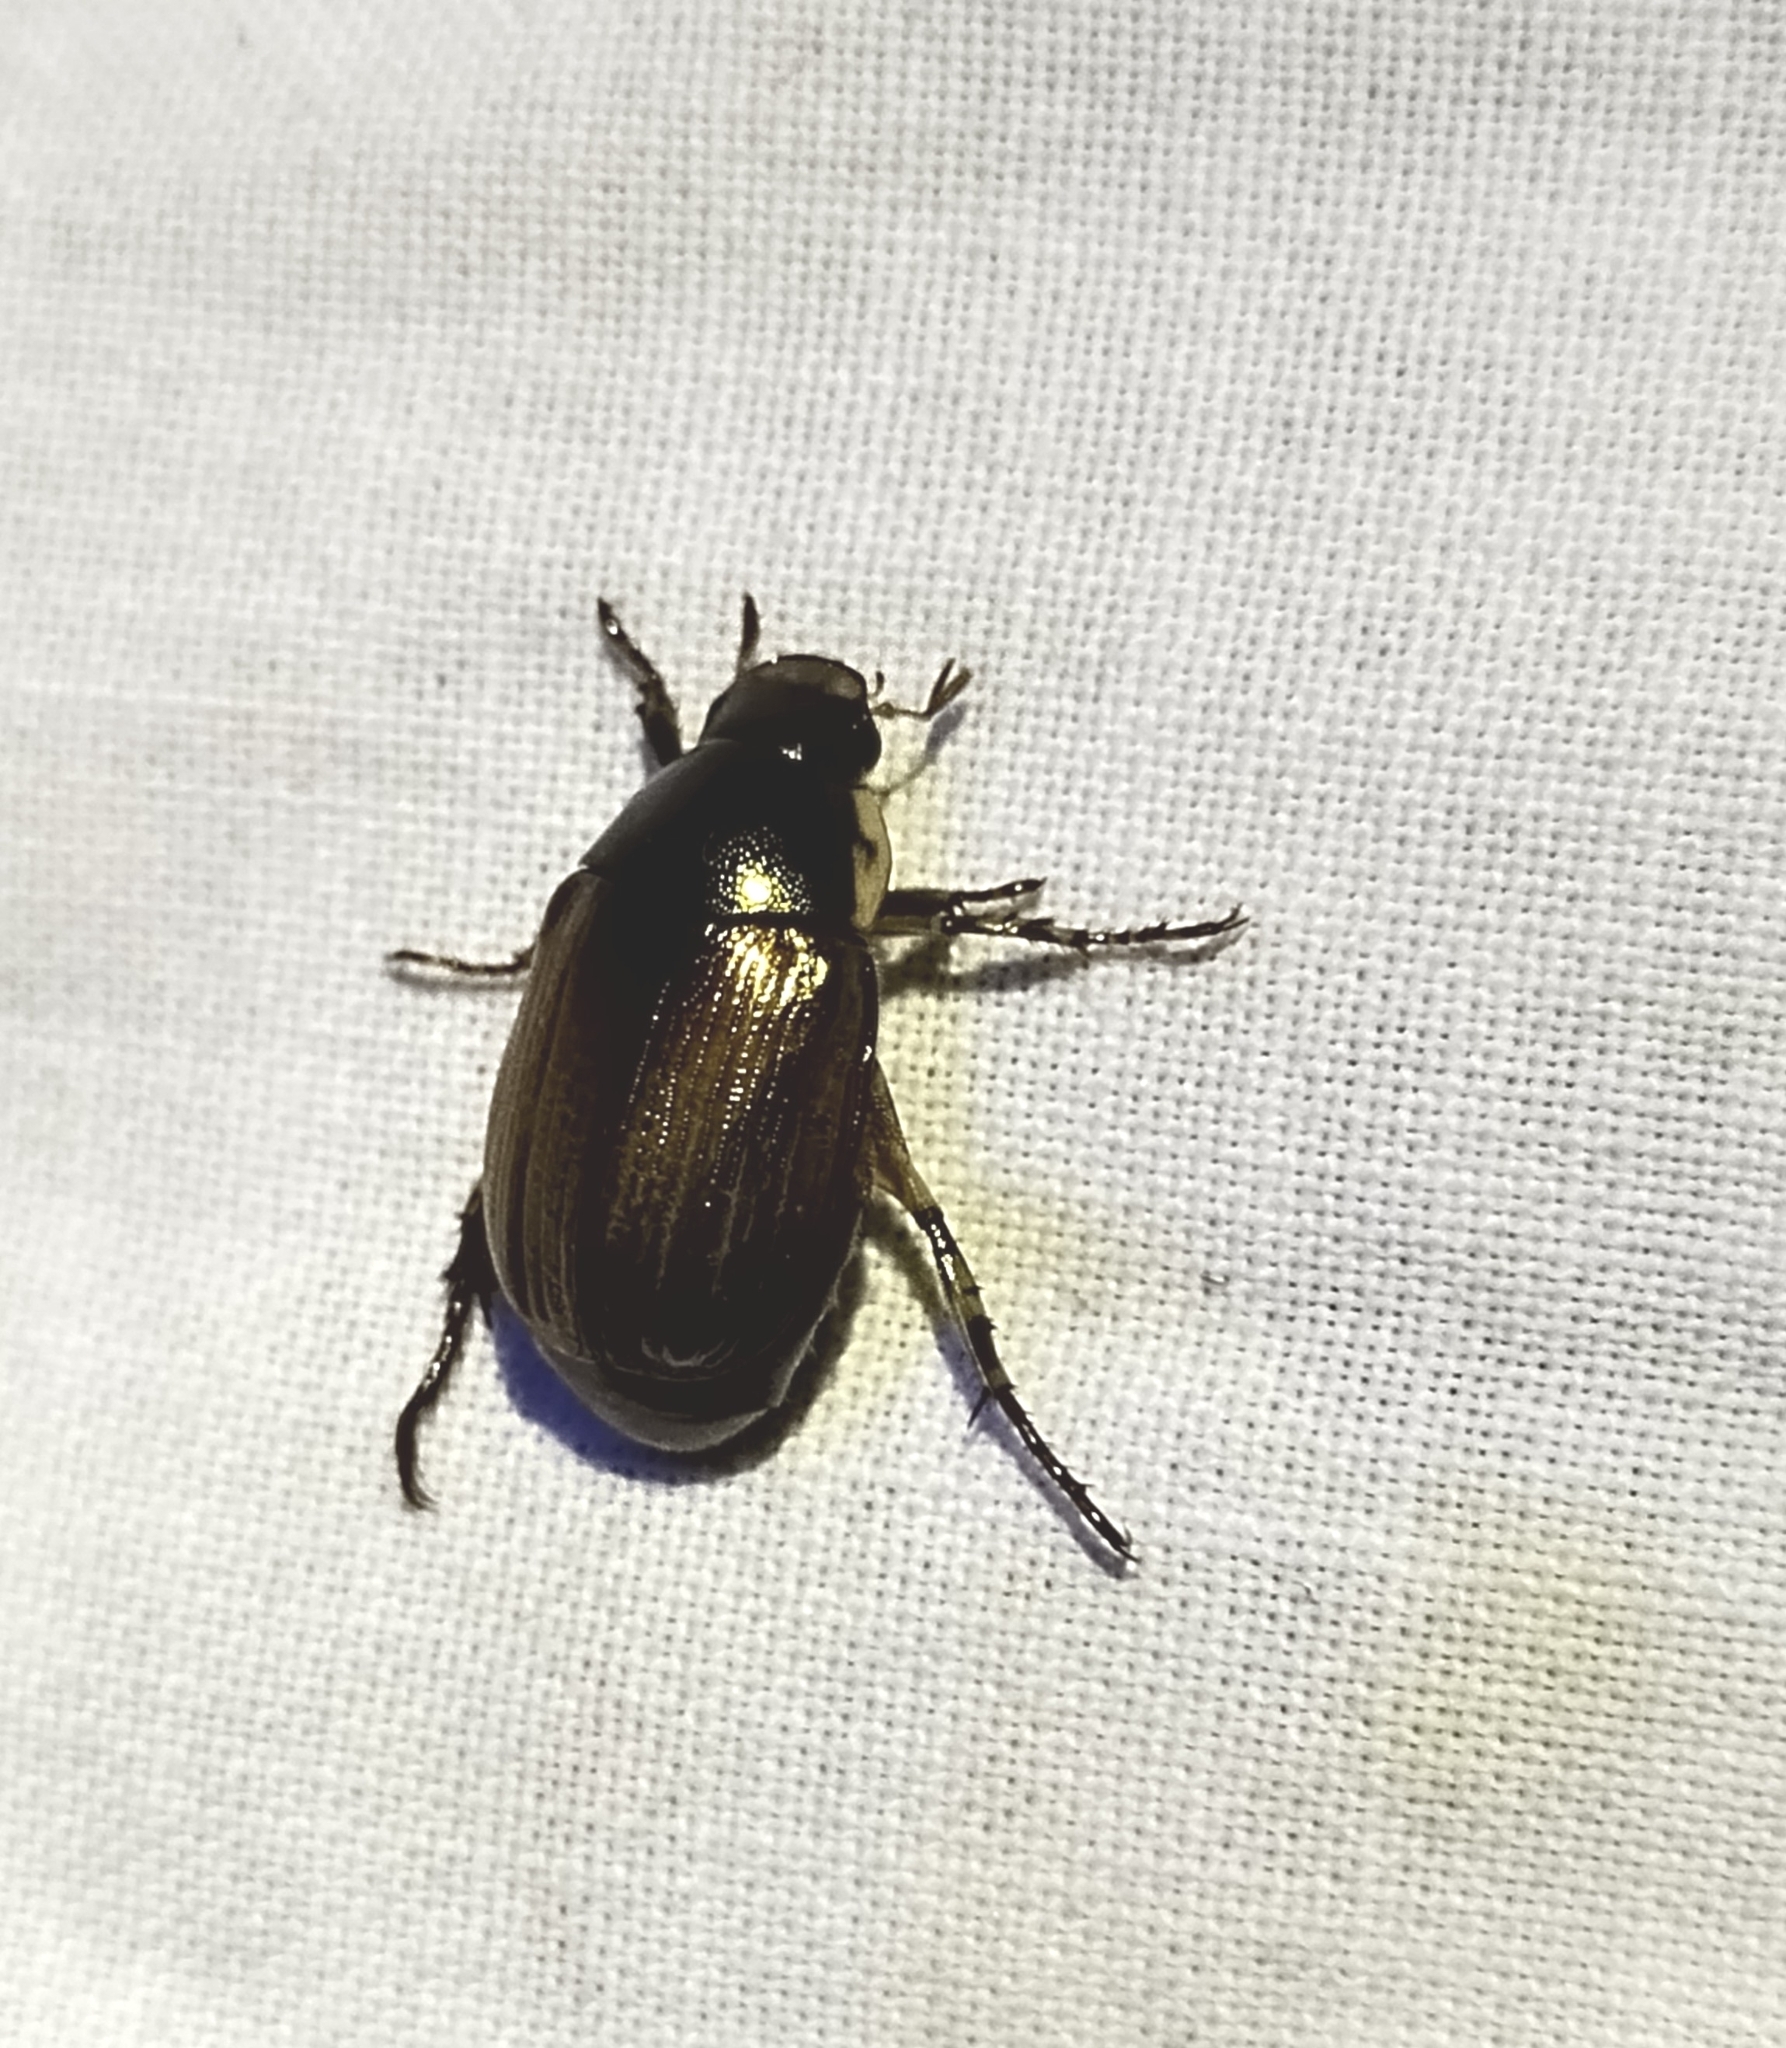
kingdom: Animalia
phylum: Arthropoda
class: Insecta
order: Coleoptera
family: Scarabaeidae
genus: Callistethus
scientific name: Callistethus marginatus
